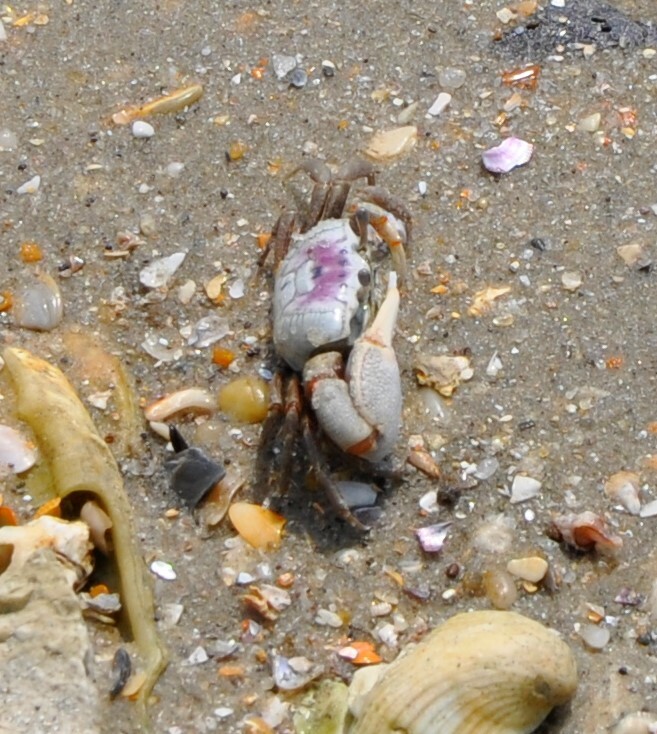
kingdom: Animalia
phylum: Arthropoda
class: Malacostraca
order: Decapoda
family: Ocypodidae
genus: Leptuca
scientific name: Leptuca pugilator
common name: Atlantic sand fiddler crab
